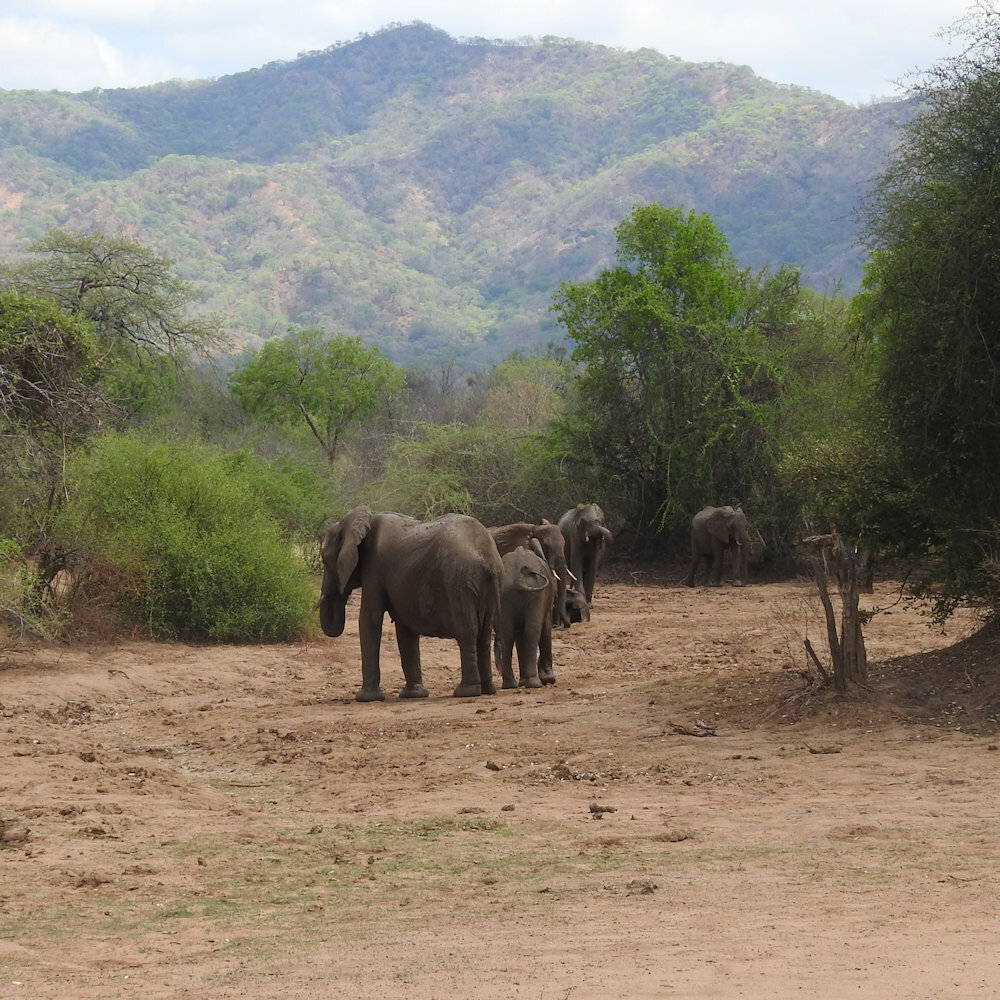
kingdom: Animalia
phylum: Chordata
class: Mammalia
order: Proboscidea
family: Elephantidae
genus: Loxodonta
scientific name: Loxodonta africana
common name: African elephant
